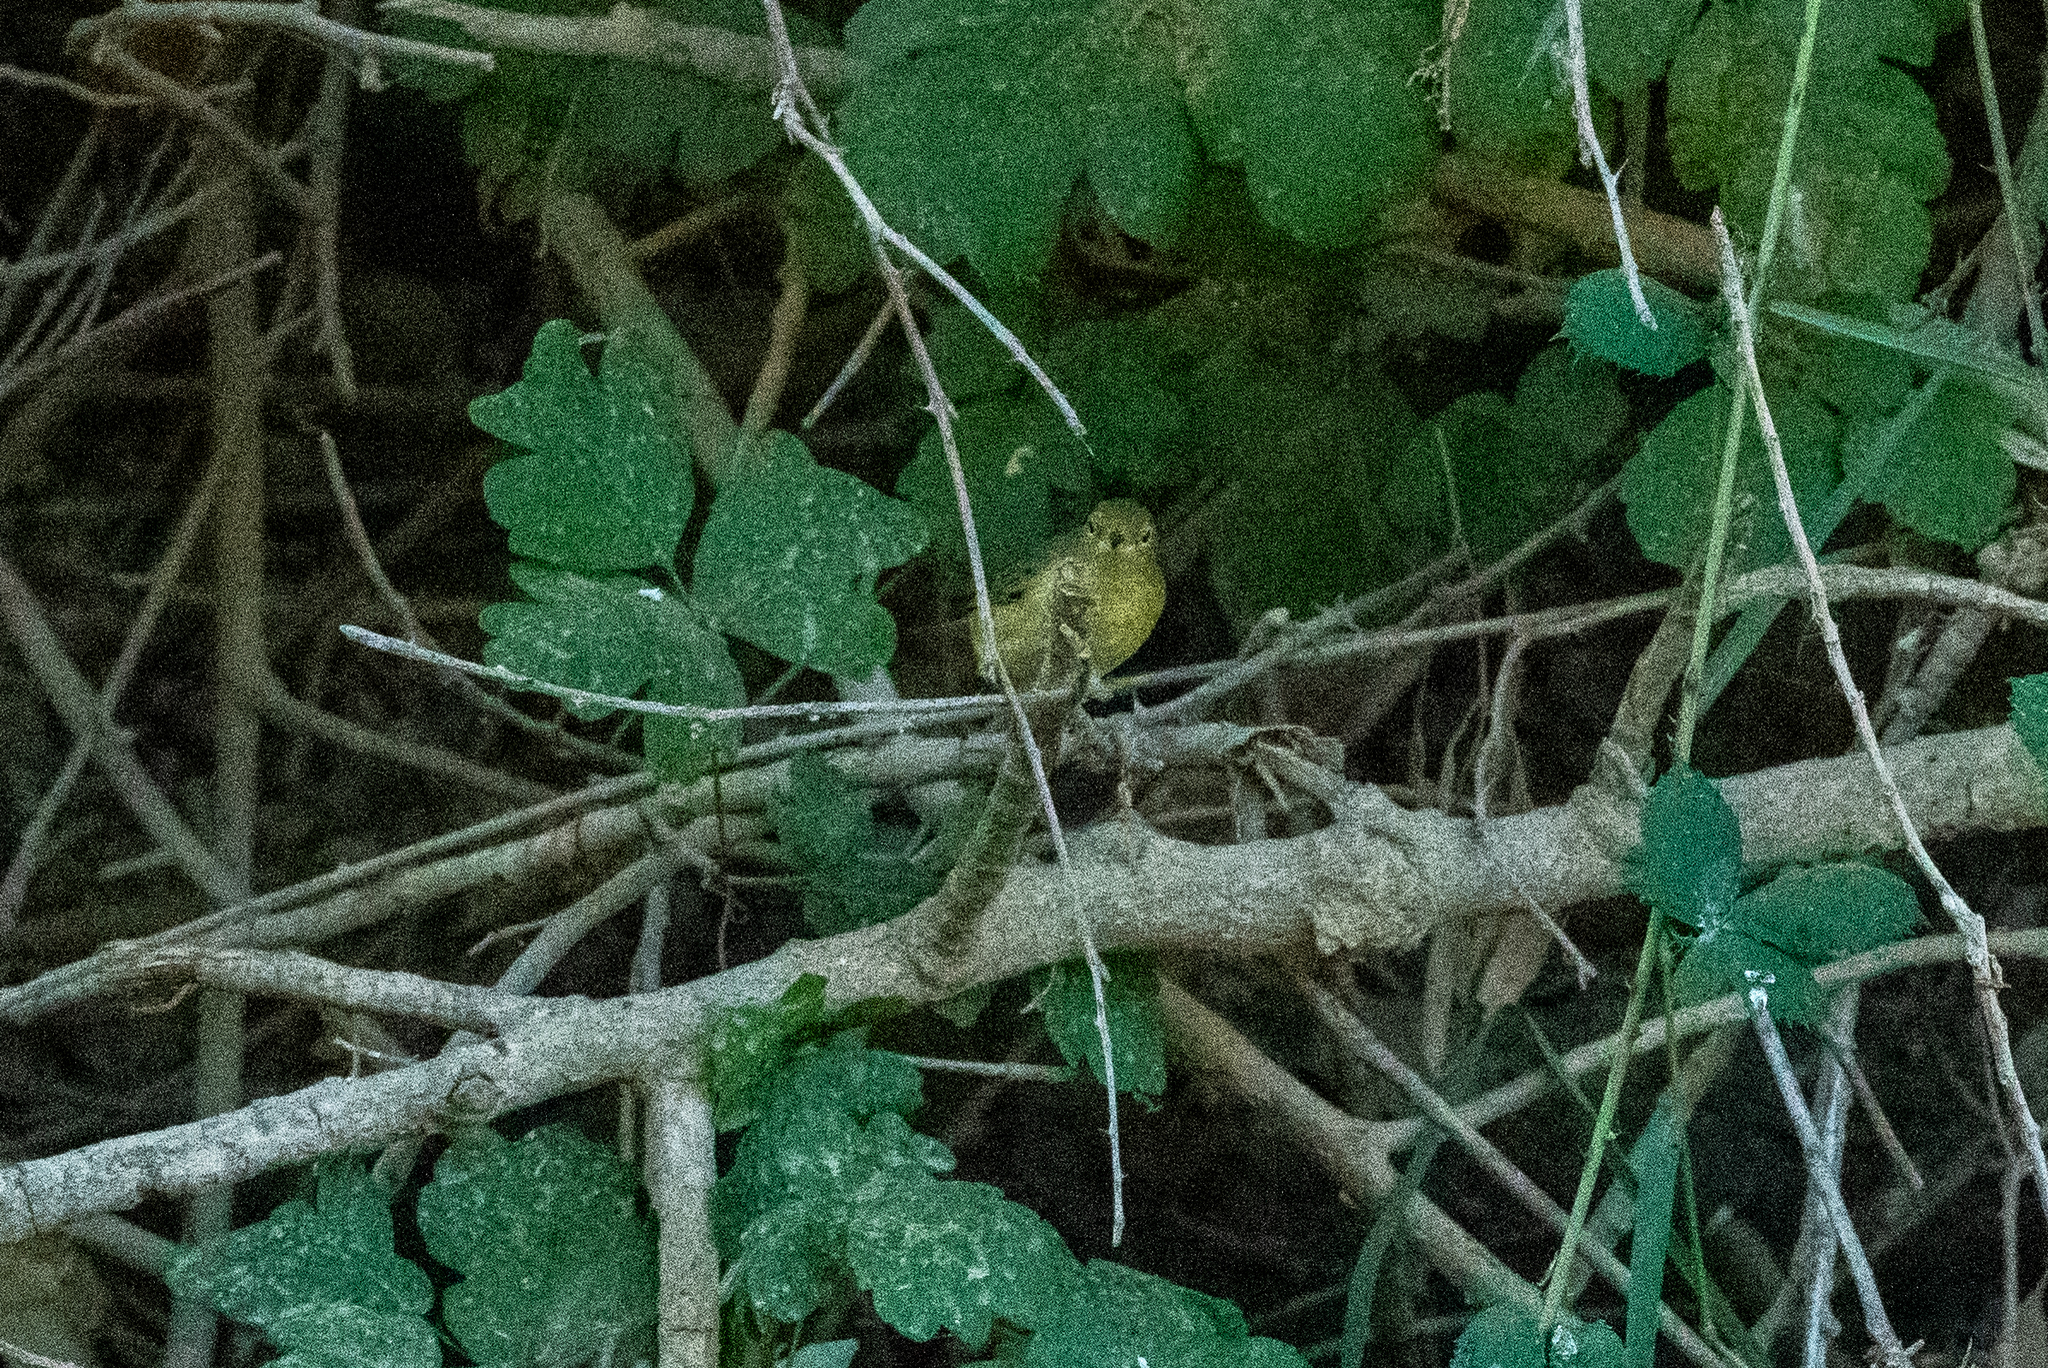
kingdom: Animalia
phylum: Chordata
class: Aves
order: Passeriformes
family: Parulidae
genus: Setophaga
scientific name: Setophaga petechia
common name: Yellow warbler
